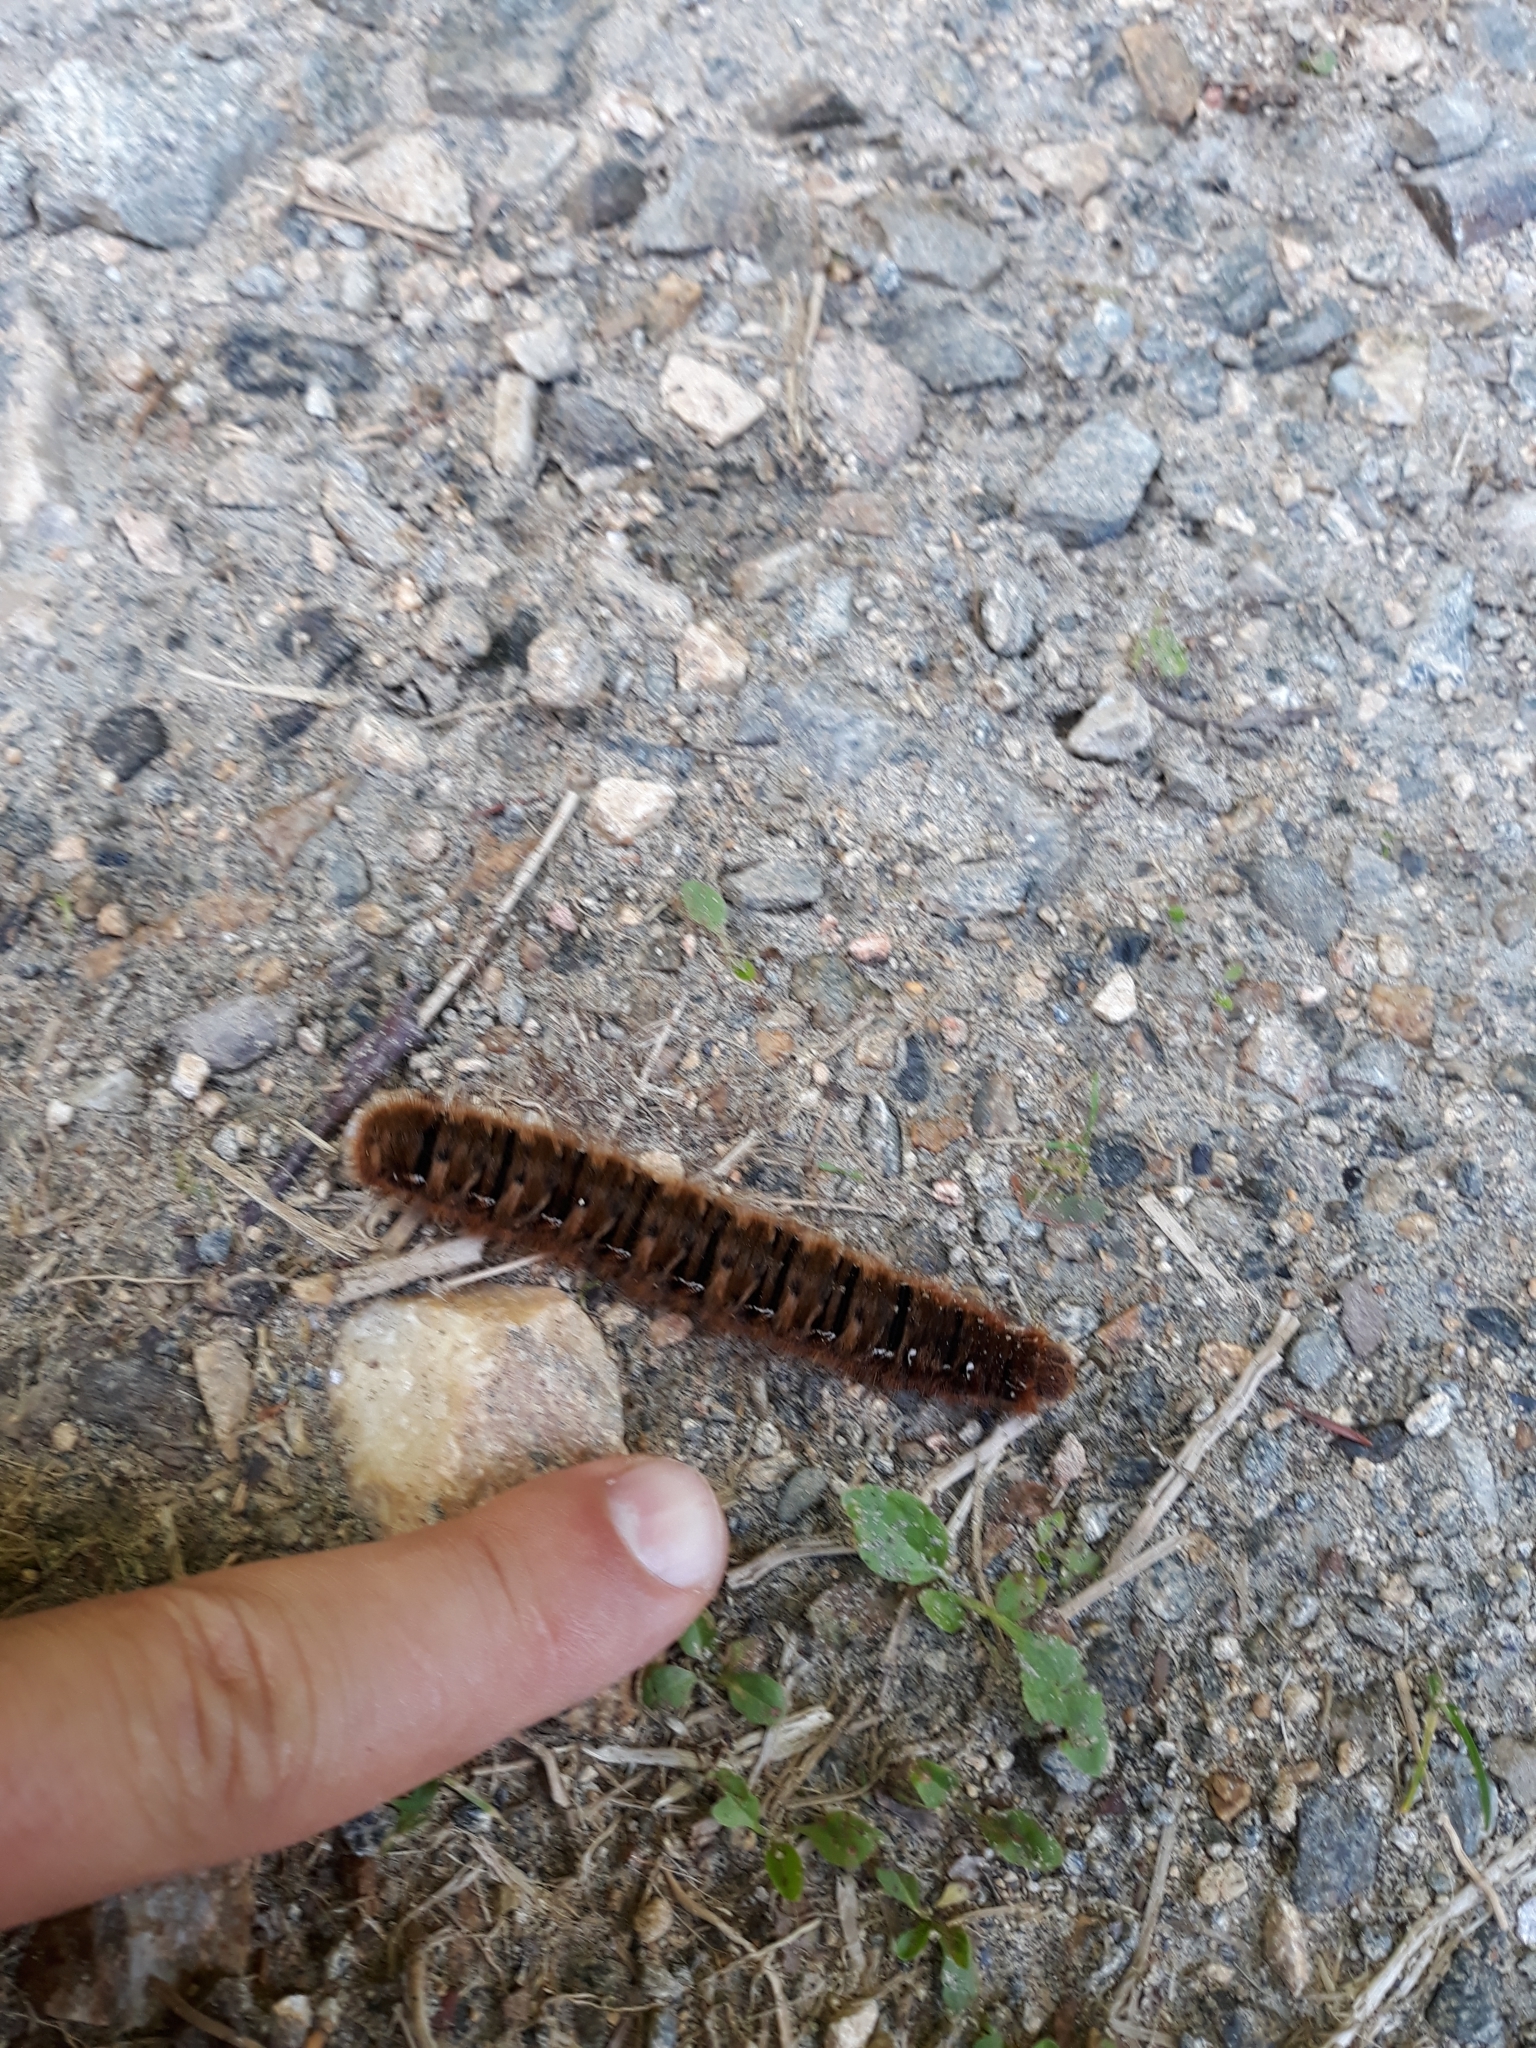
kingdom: Animalia
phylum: Arthropoda
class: Insecta
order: Lepidoptera
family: Lasiocampidae
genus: Lasiocampa
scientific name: Lasiocampa quercus
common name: Oak eggar
